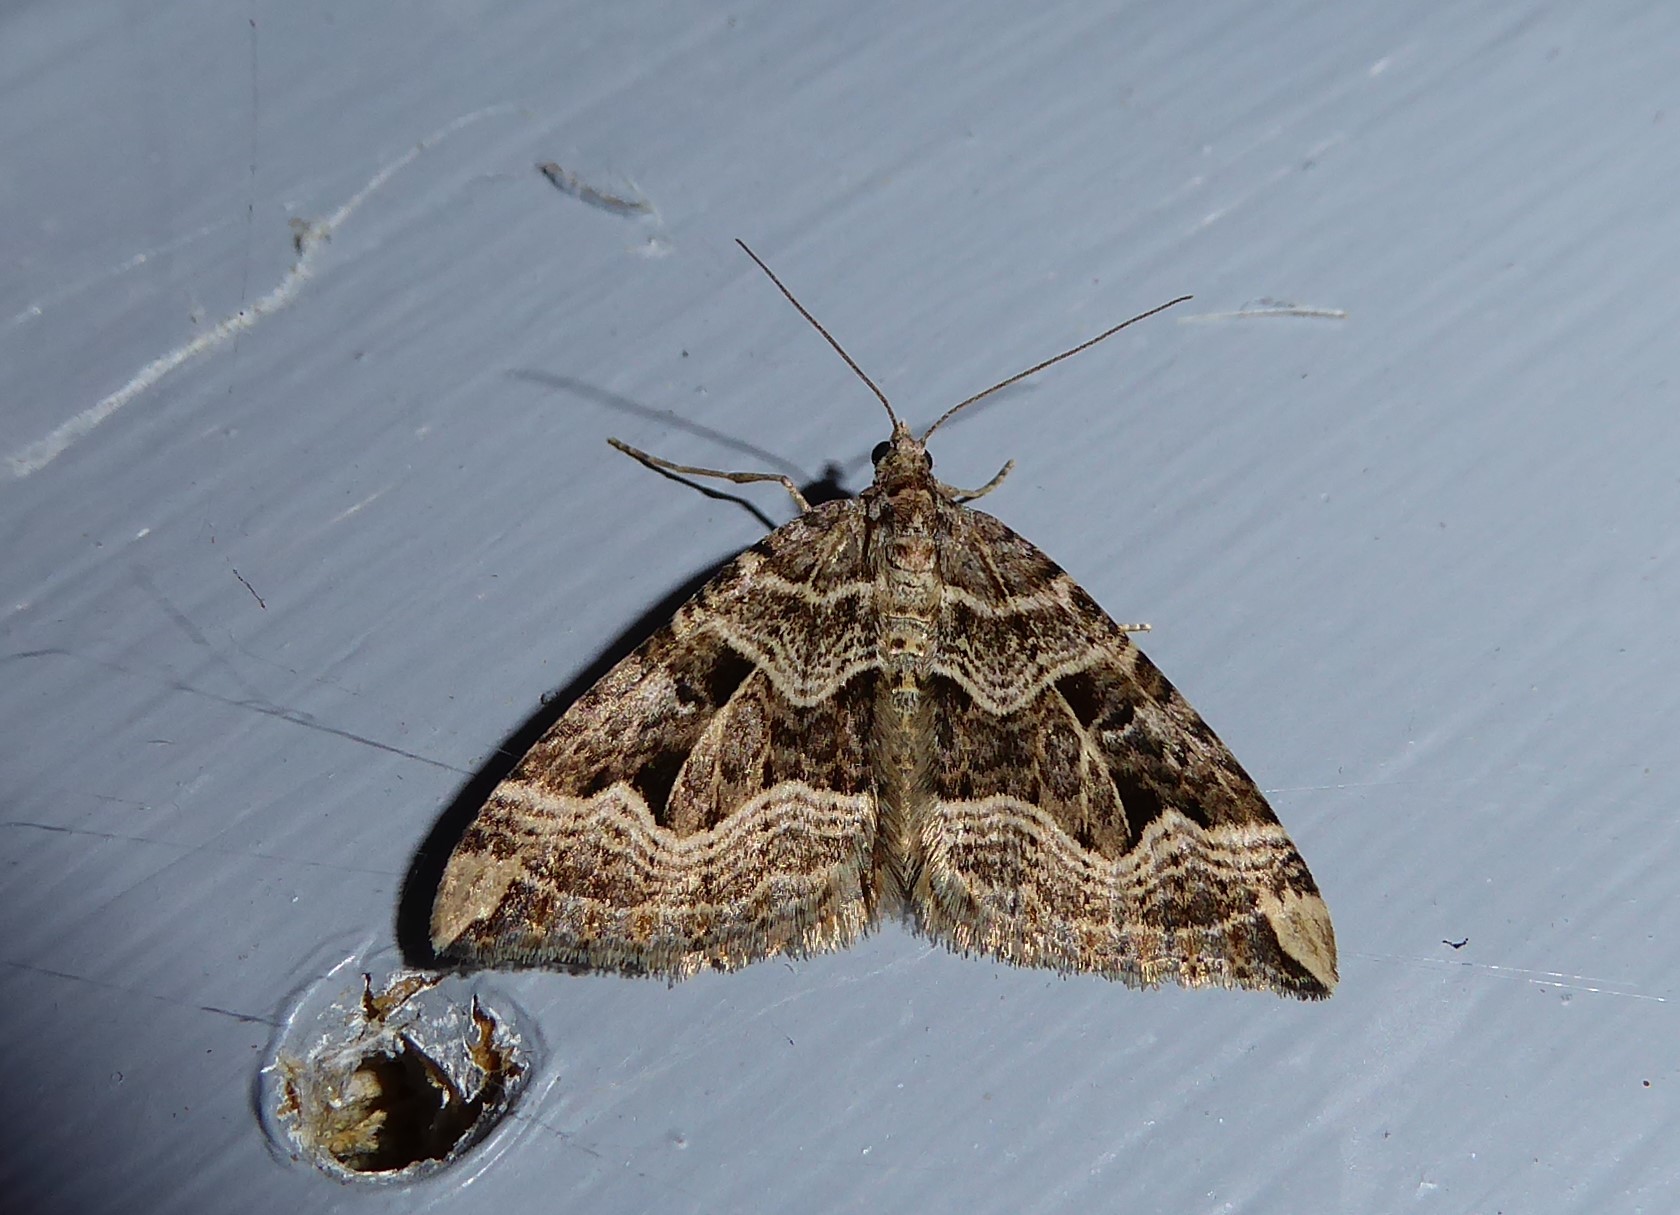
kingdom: Animalia
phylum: Arthropoda
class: Insecta
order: Lepidoptera
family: Geometridae
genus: Xanthorhoe
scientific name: Xanthorhoe semifissata
